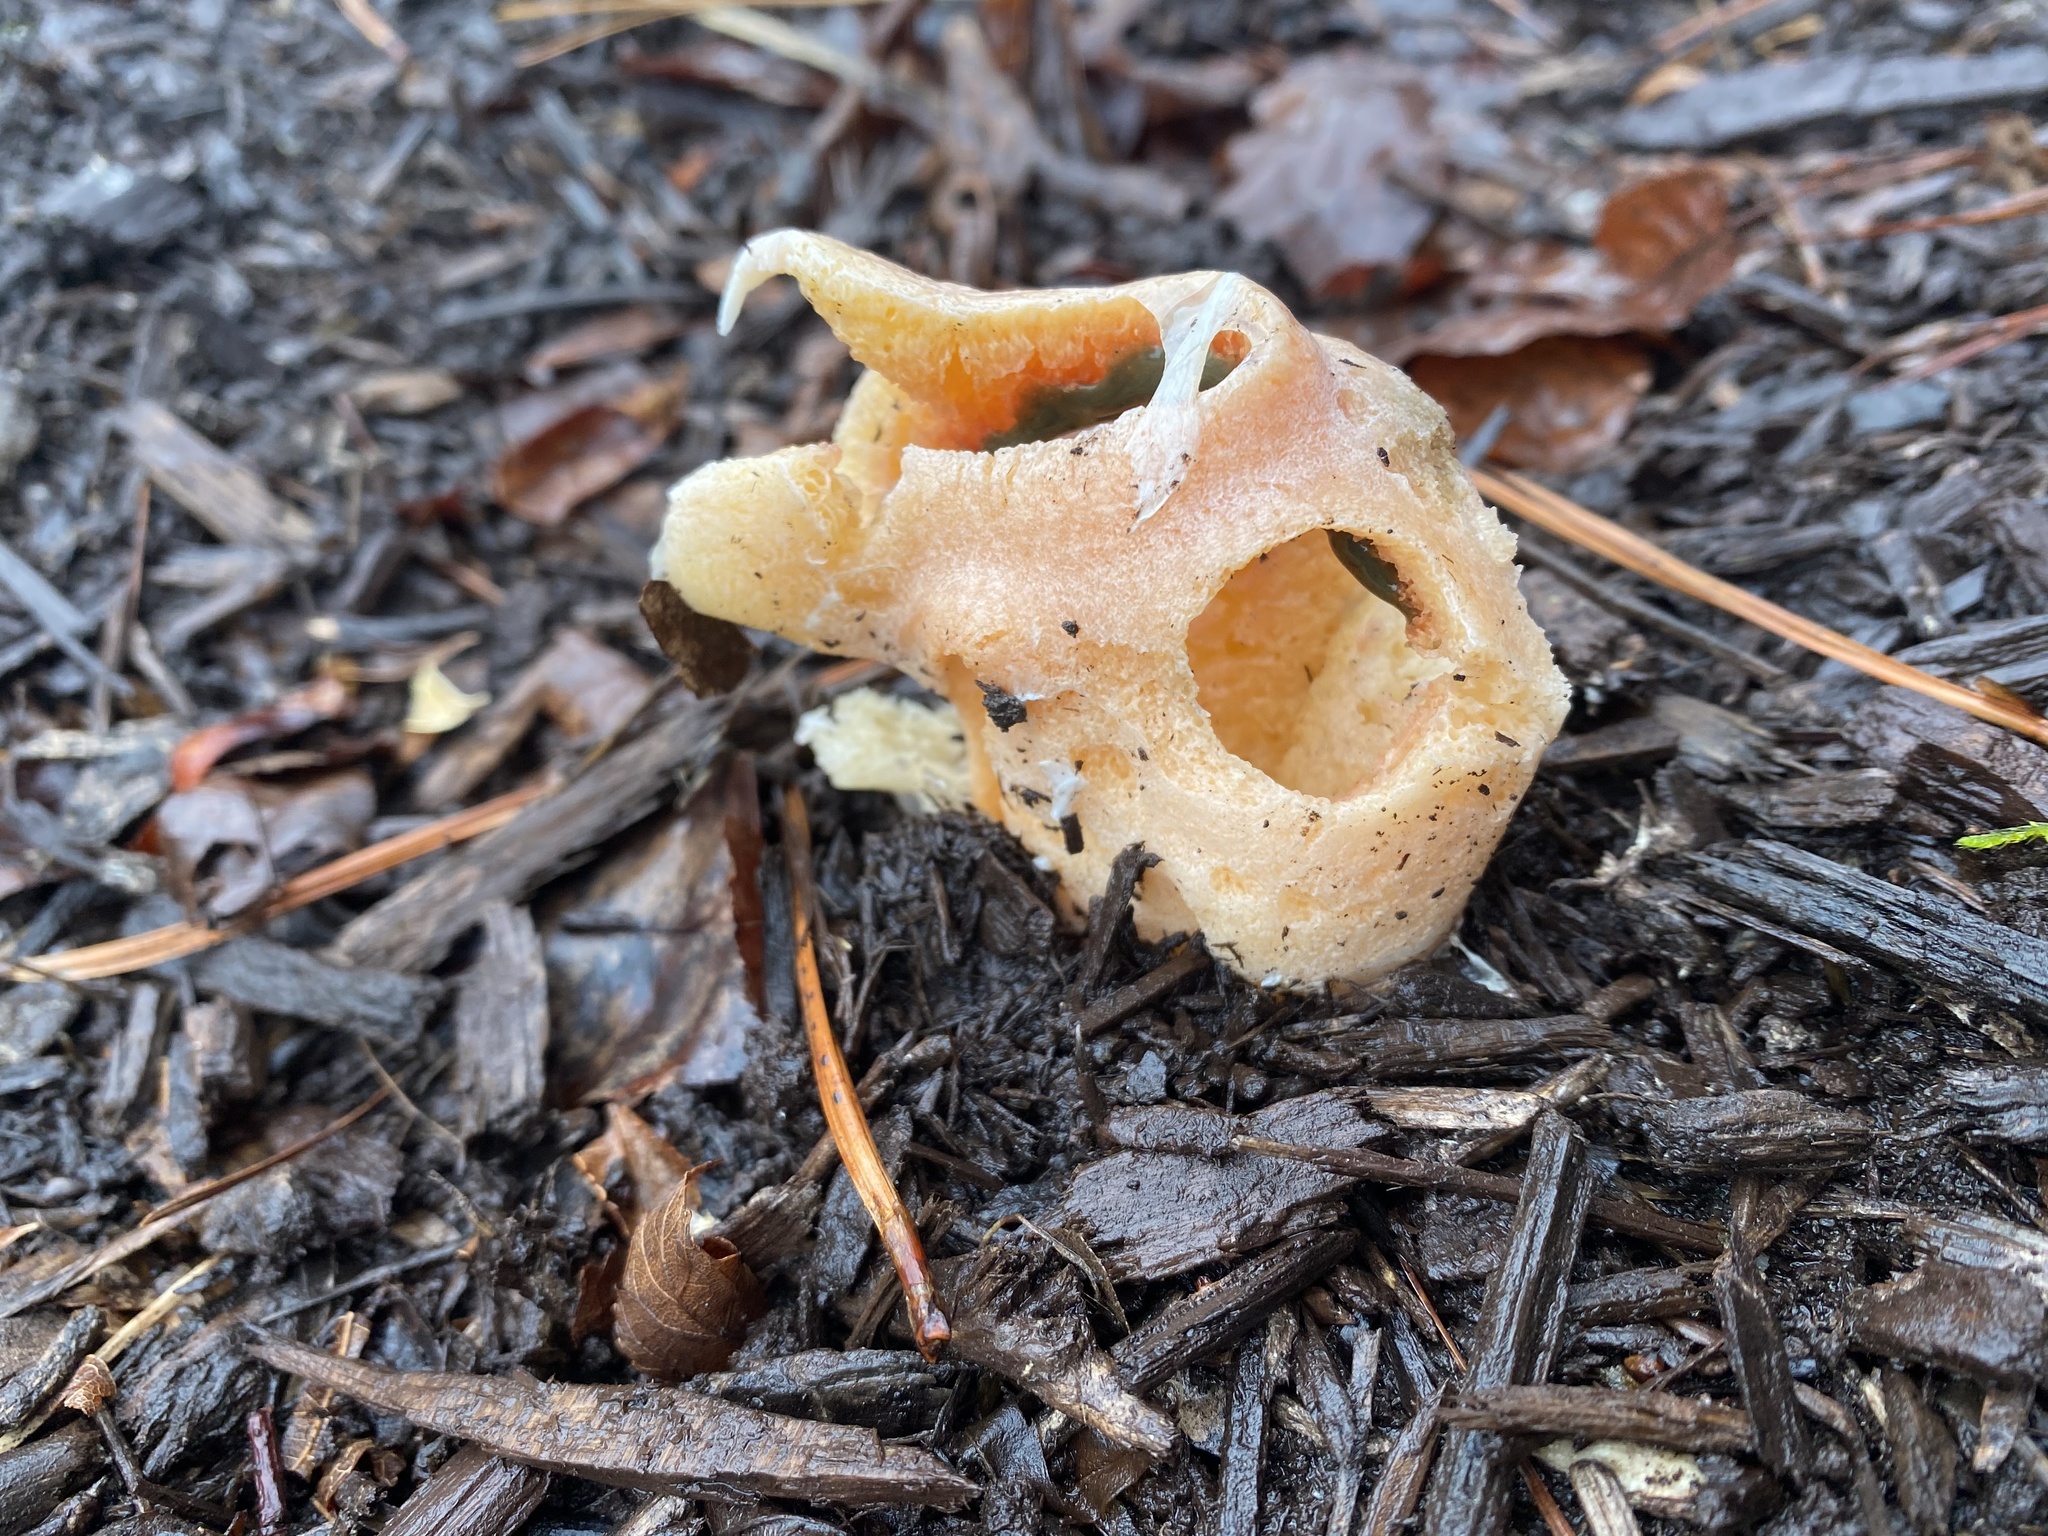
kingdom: Fungi
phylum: Basidiomycota
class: Agaricomycetes
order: Phallales
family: Phallaceae
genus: Clathrus
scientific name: Clathrus columnatus
